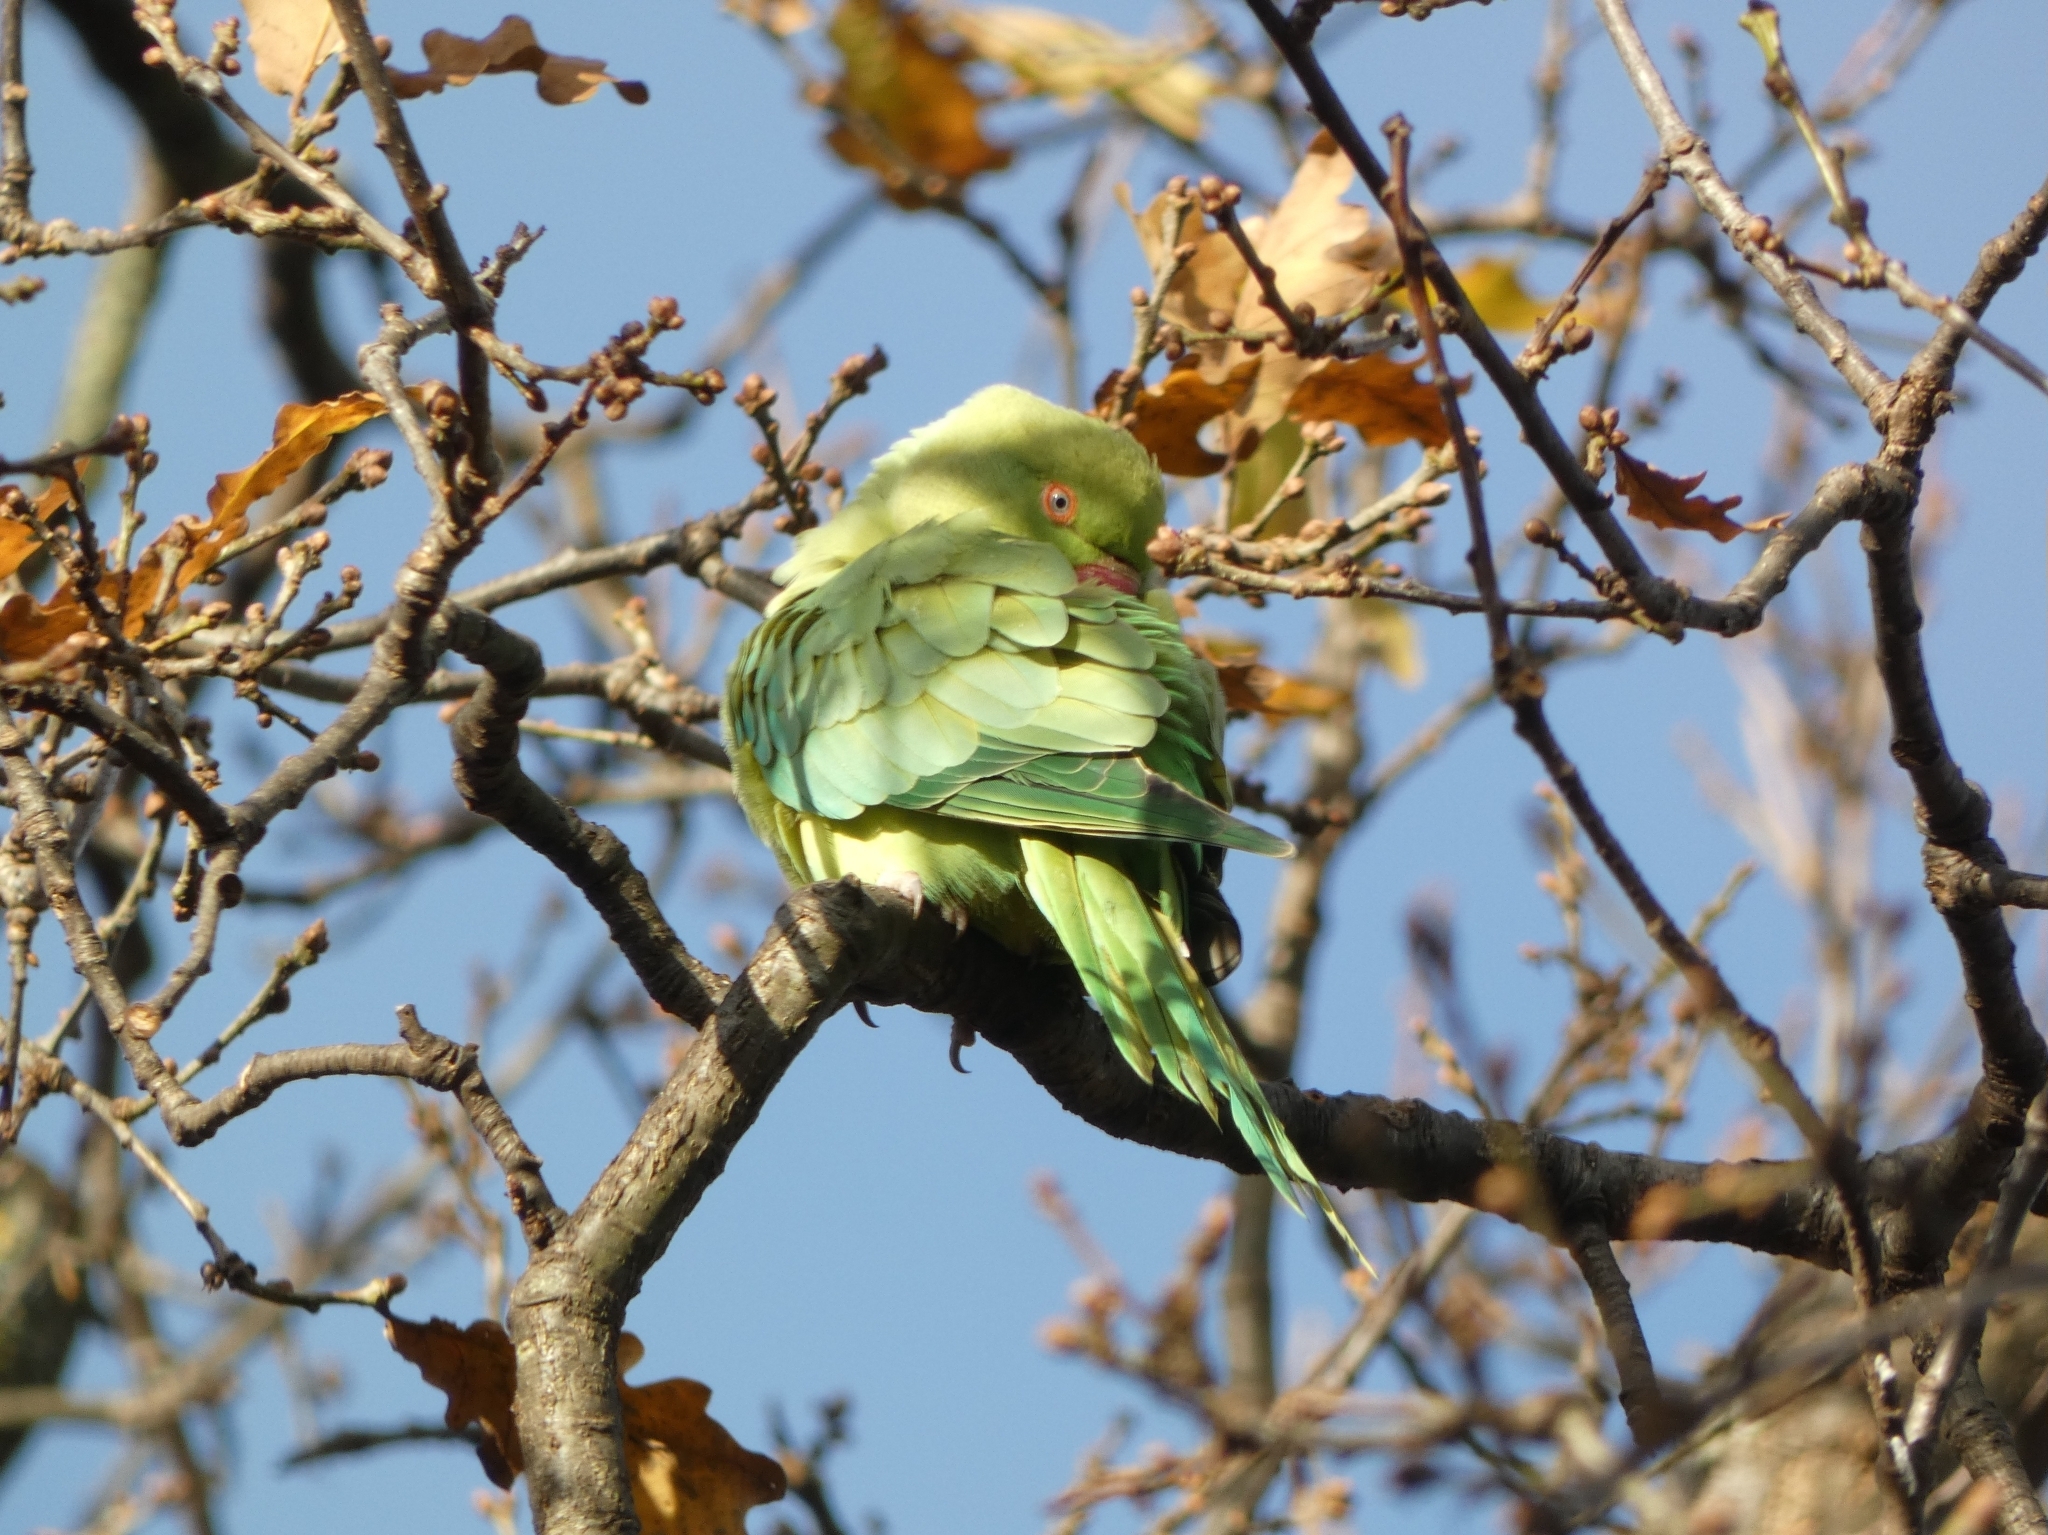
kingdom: Animalia
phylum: Chordata
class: Aves
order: Psittaciformes
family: Psittacidae
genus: Psittacula
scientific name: Psittacula krameri
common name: Rose-ringed parakeet
